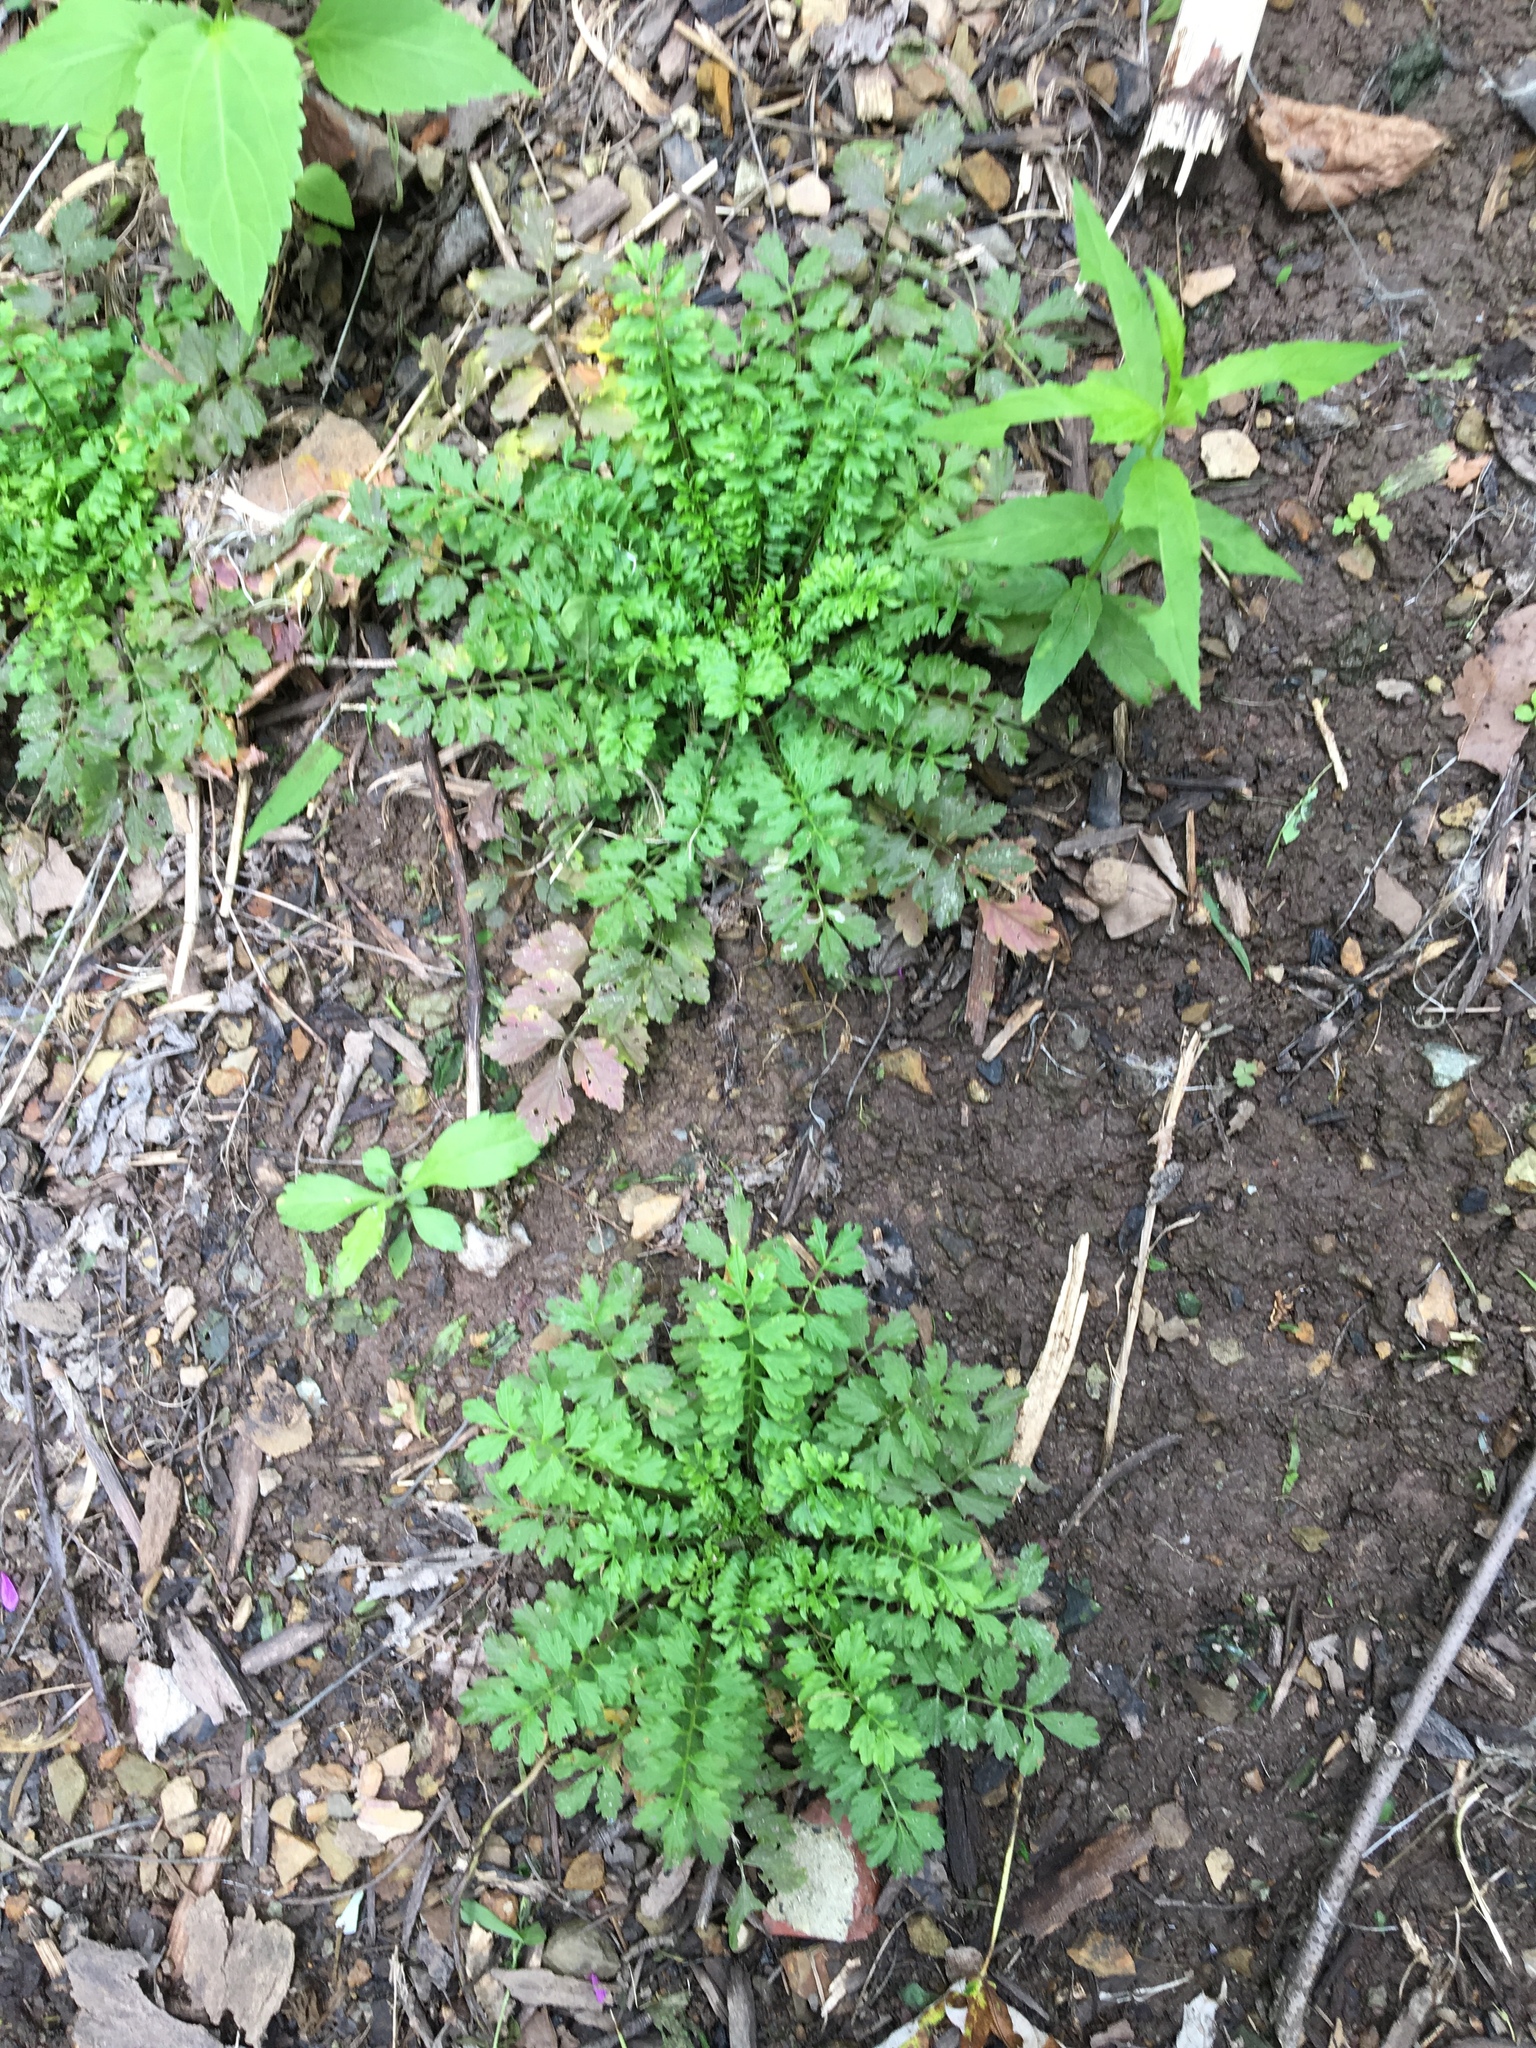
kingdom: Plantae
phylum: Tracheophyta
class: Magnoliopsida
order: Brassicales
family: Brassicaceae
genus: Cardamine
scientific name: Cardamine impatiens
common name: Narrow-leaved bitter-cress
